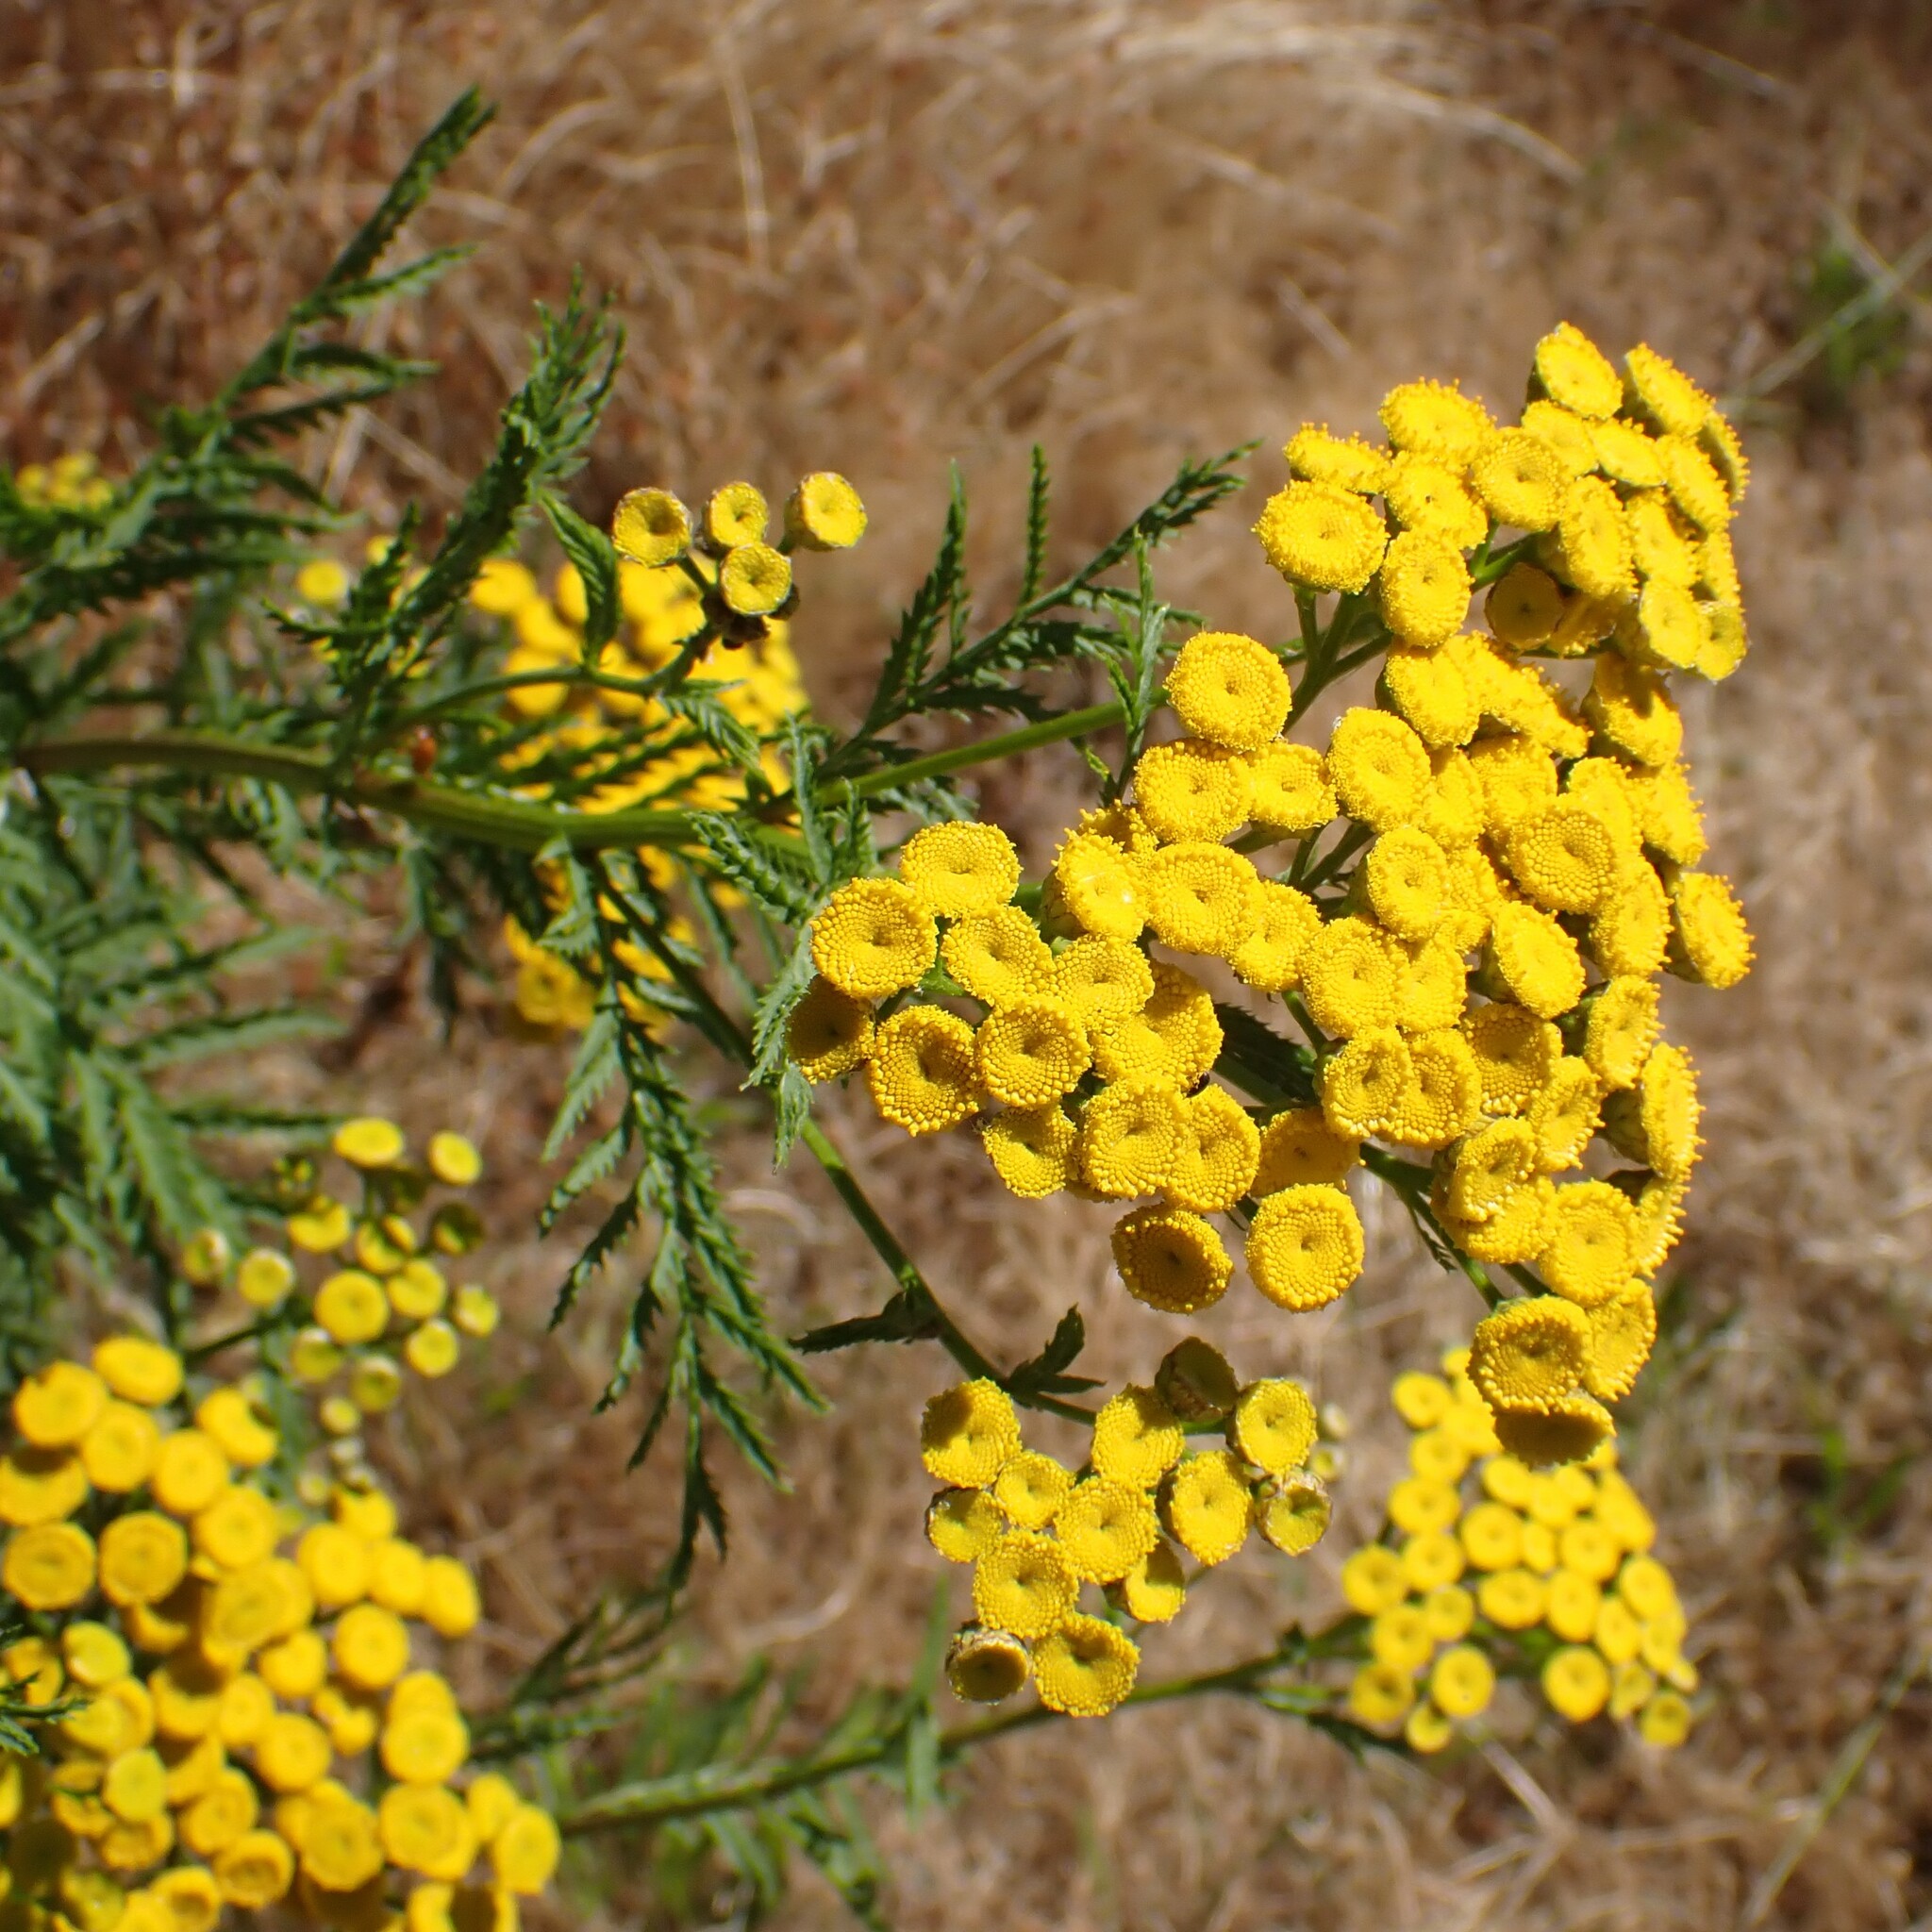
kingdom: Plantae
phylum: Tracheophyta
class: Magnoliopsida
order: Asterales
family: Asteraceae
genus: Tanacetum
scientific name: Tanacetum vulgare
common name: Common tansy
